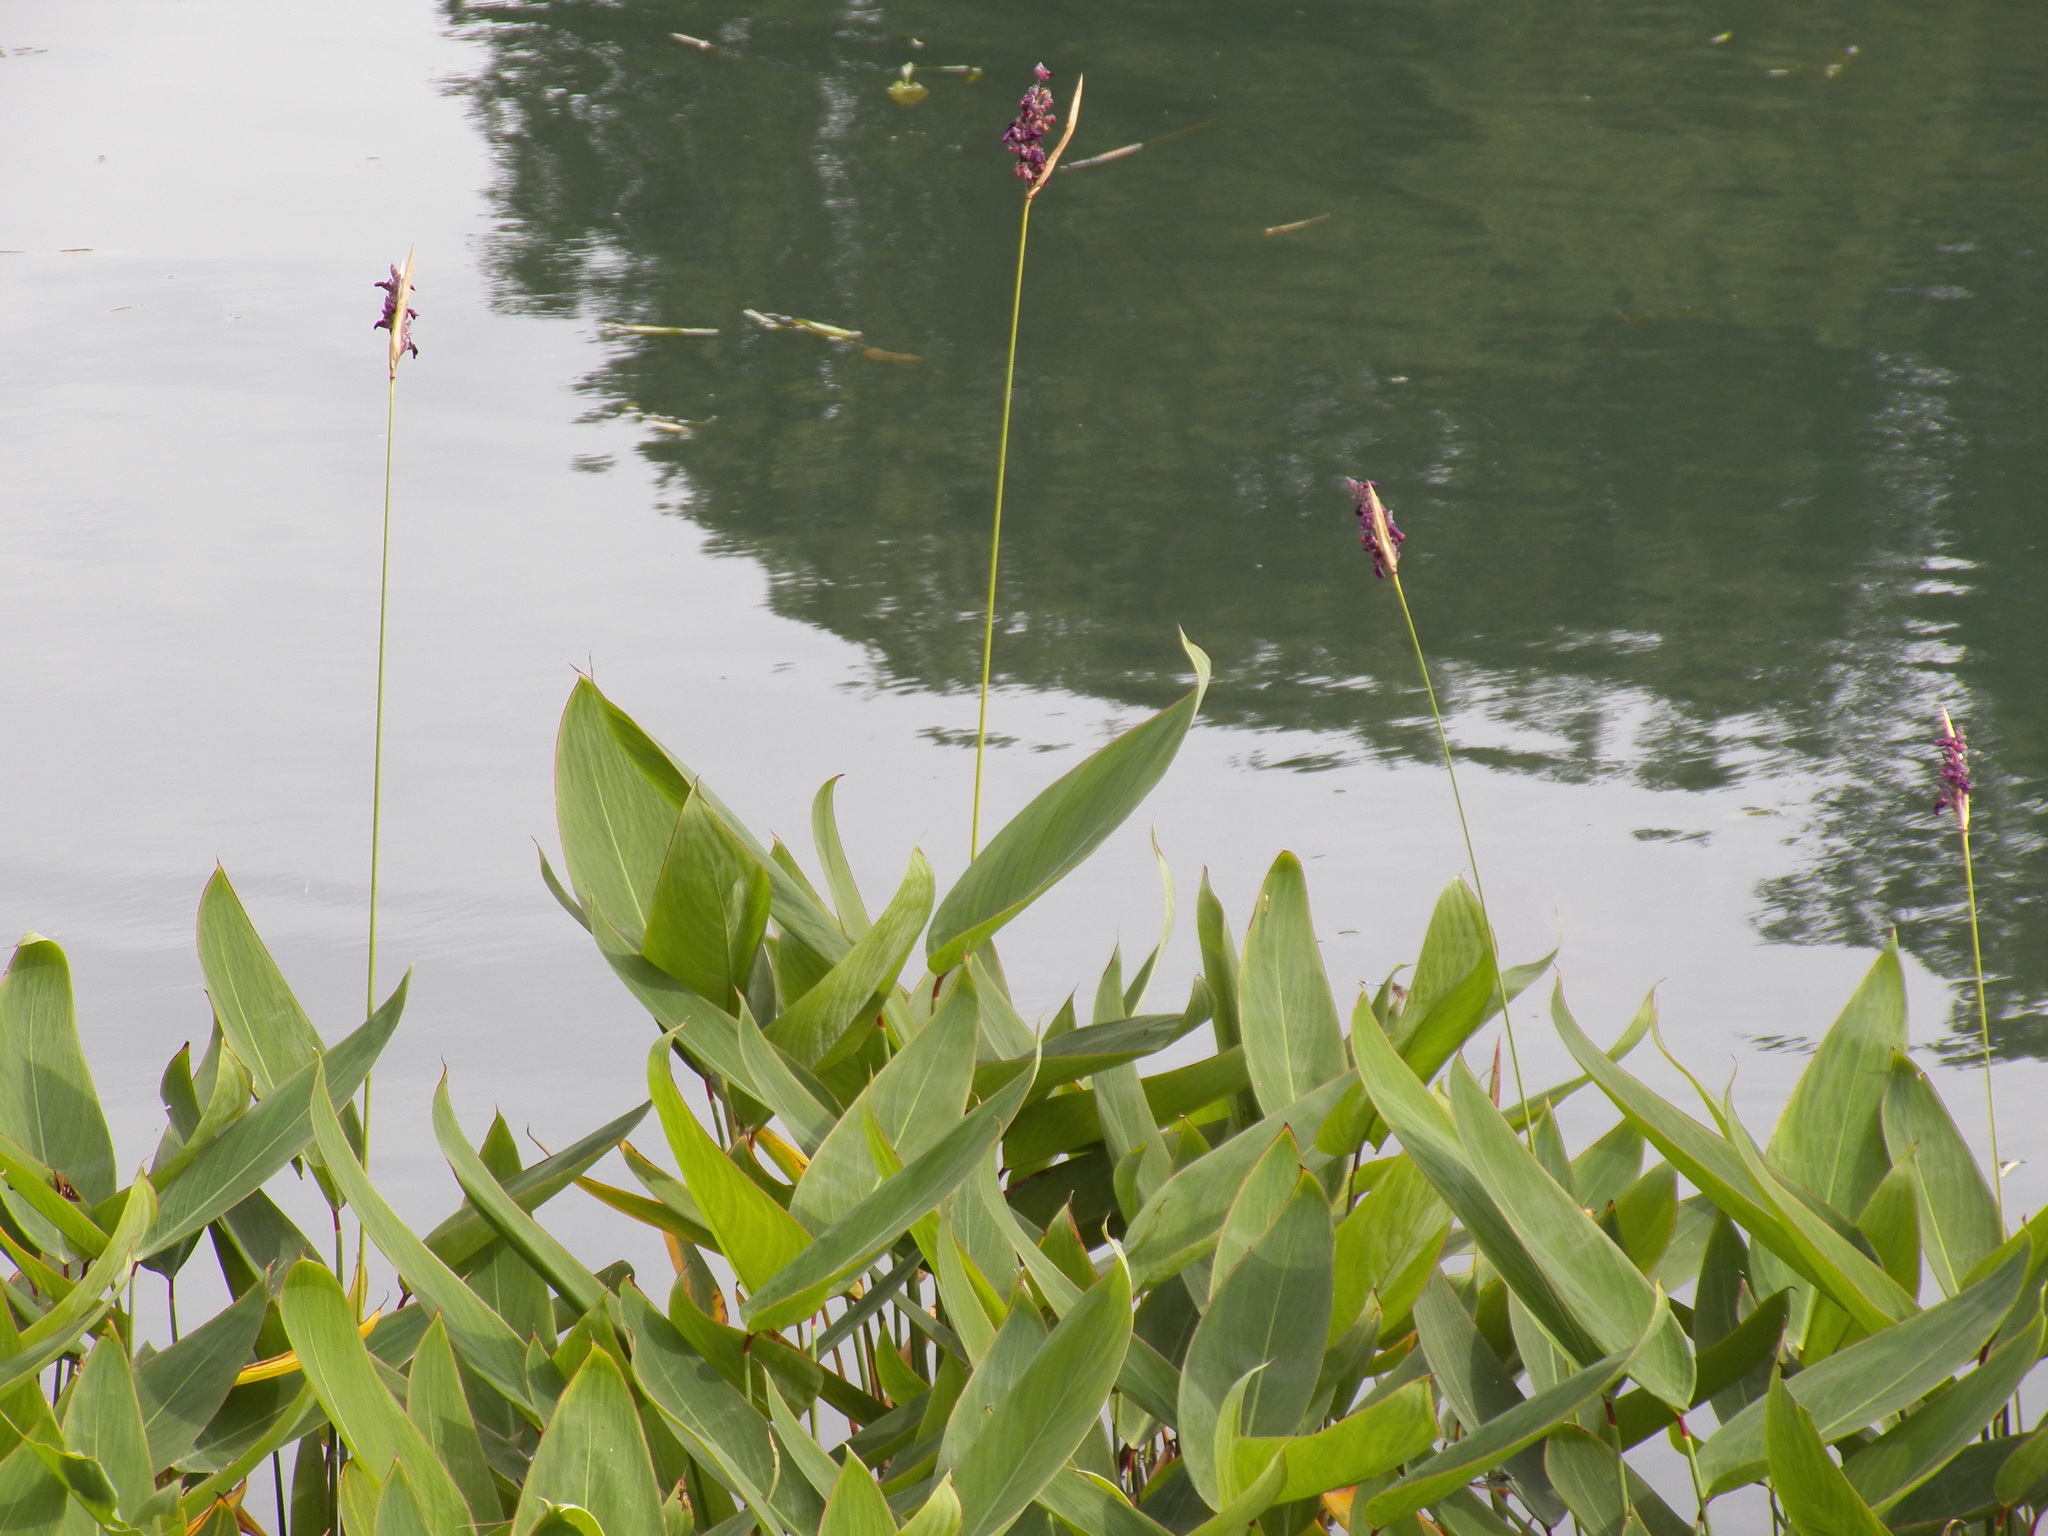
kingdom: Plantae
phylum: Tracheophyta
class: Liliopsida
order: Zingiberales
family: Marantaceae
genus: Thalia
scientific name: Thalia dealbata
